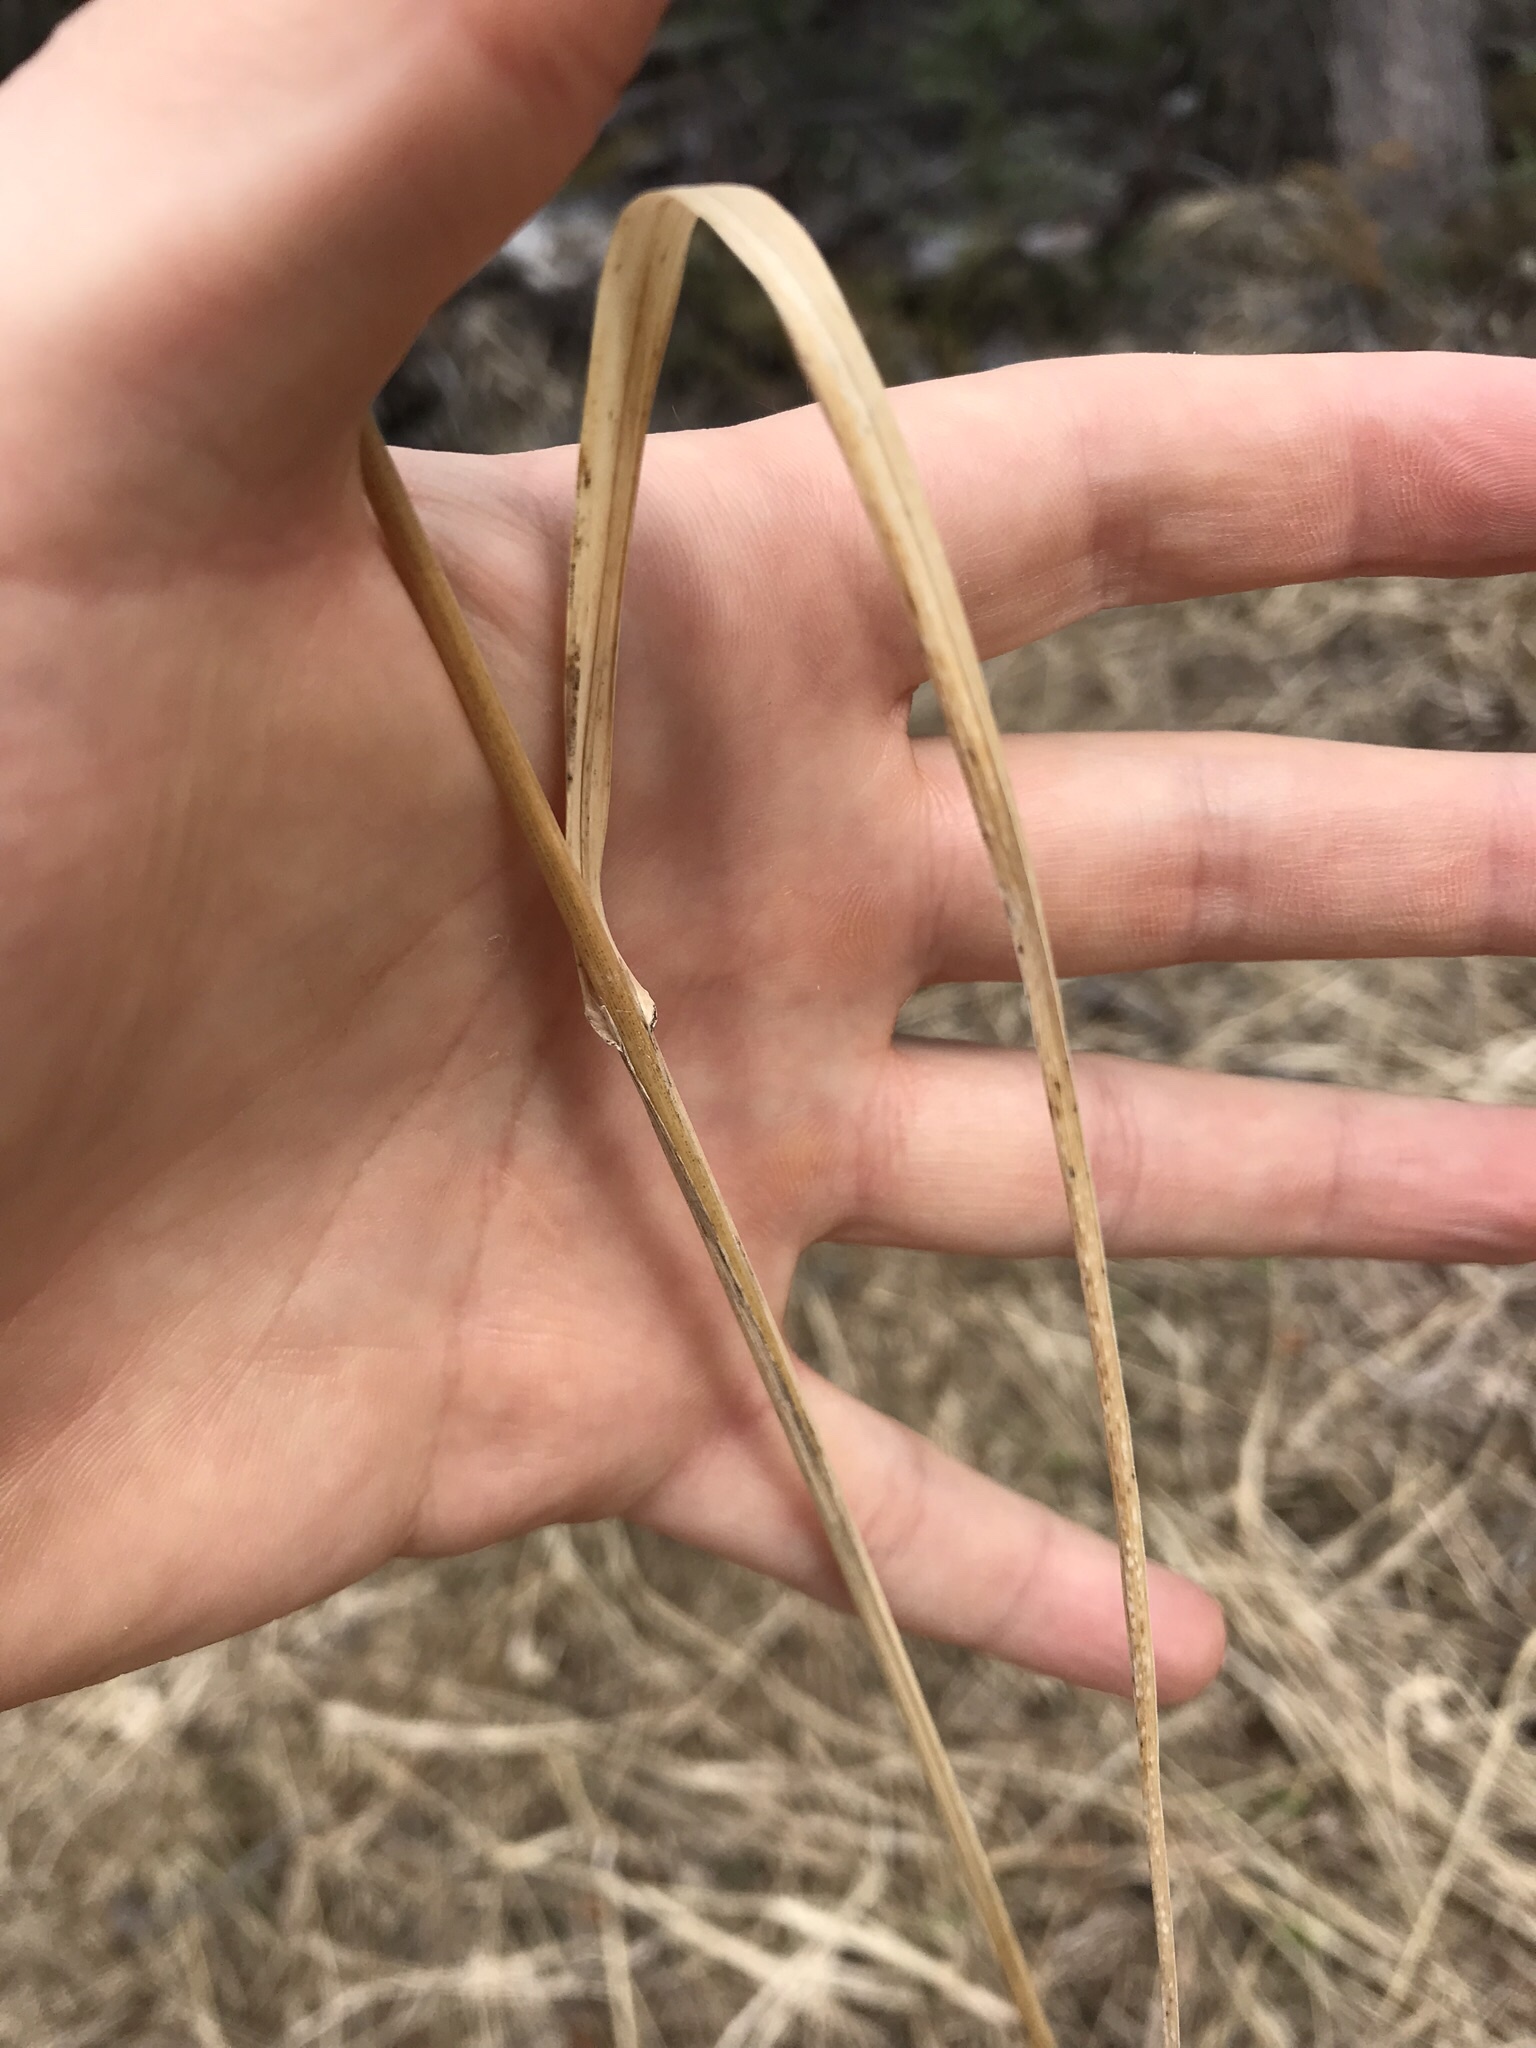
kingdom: Plantae
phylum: Tracheophyta
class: Liliopsida
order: Poales
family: Poaceae
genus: Dactylis
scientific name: Dactylis glomerata
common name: Orchardgrass
